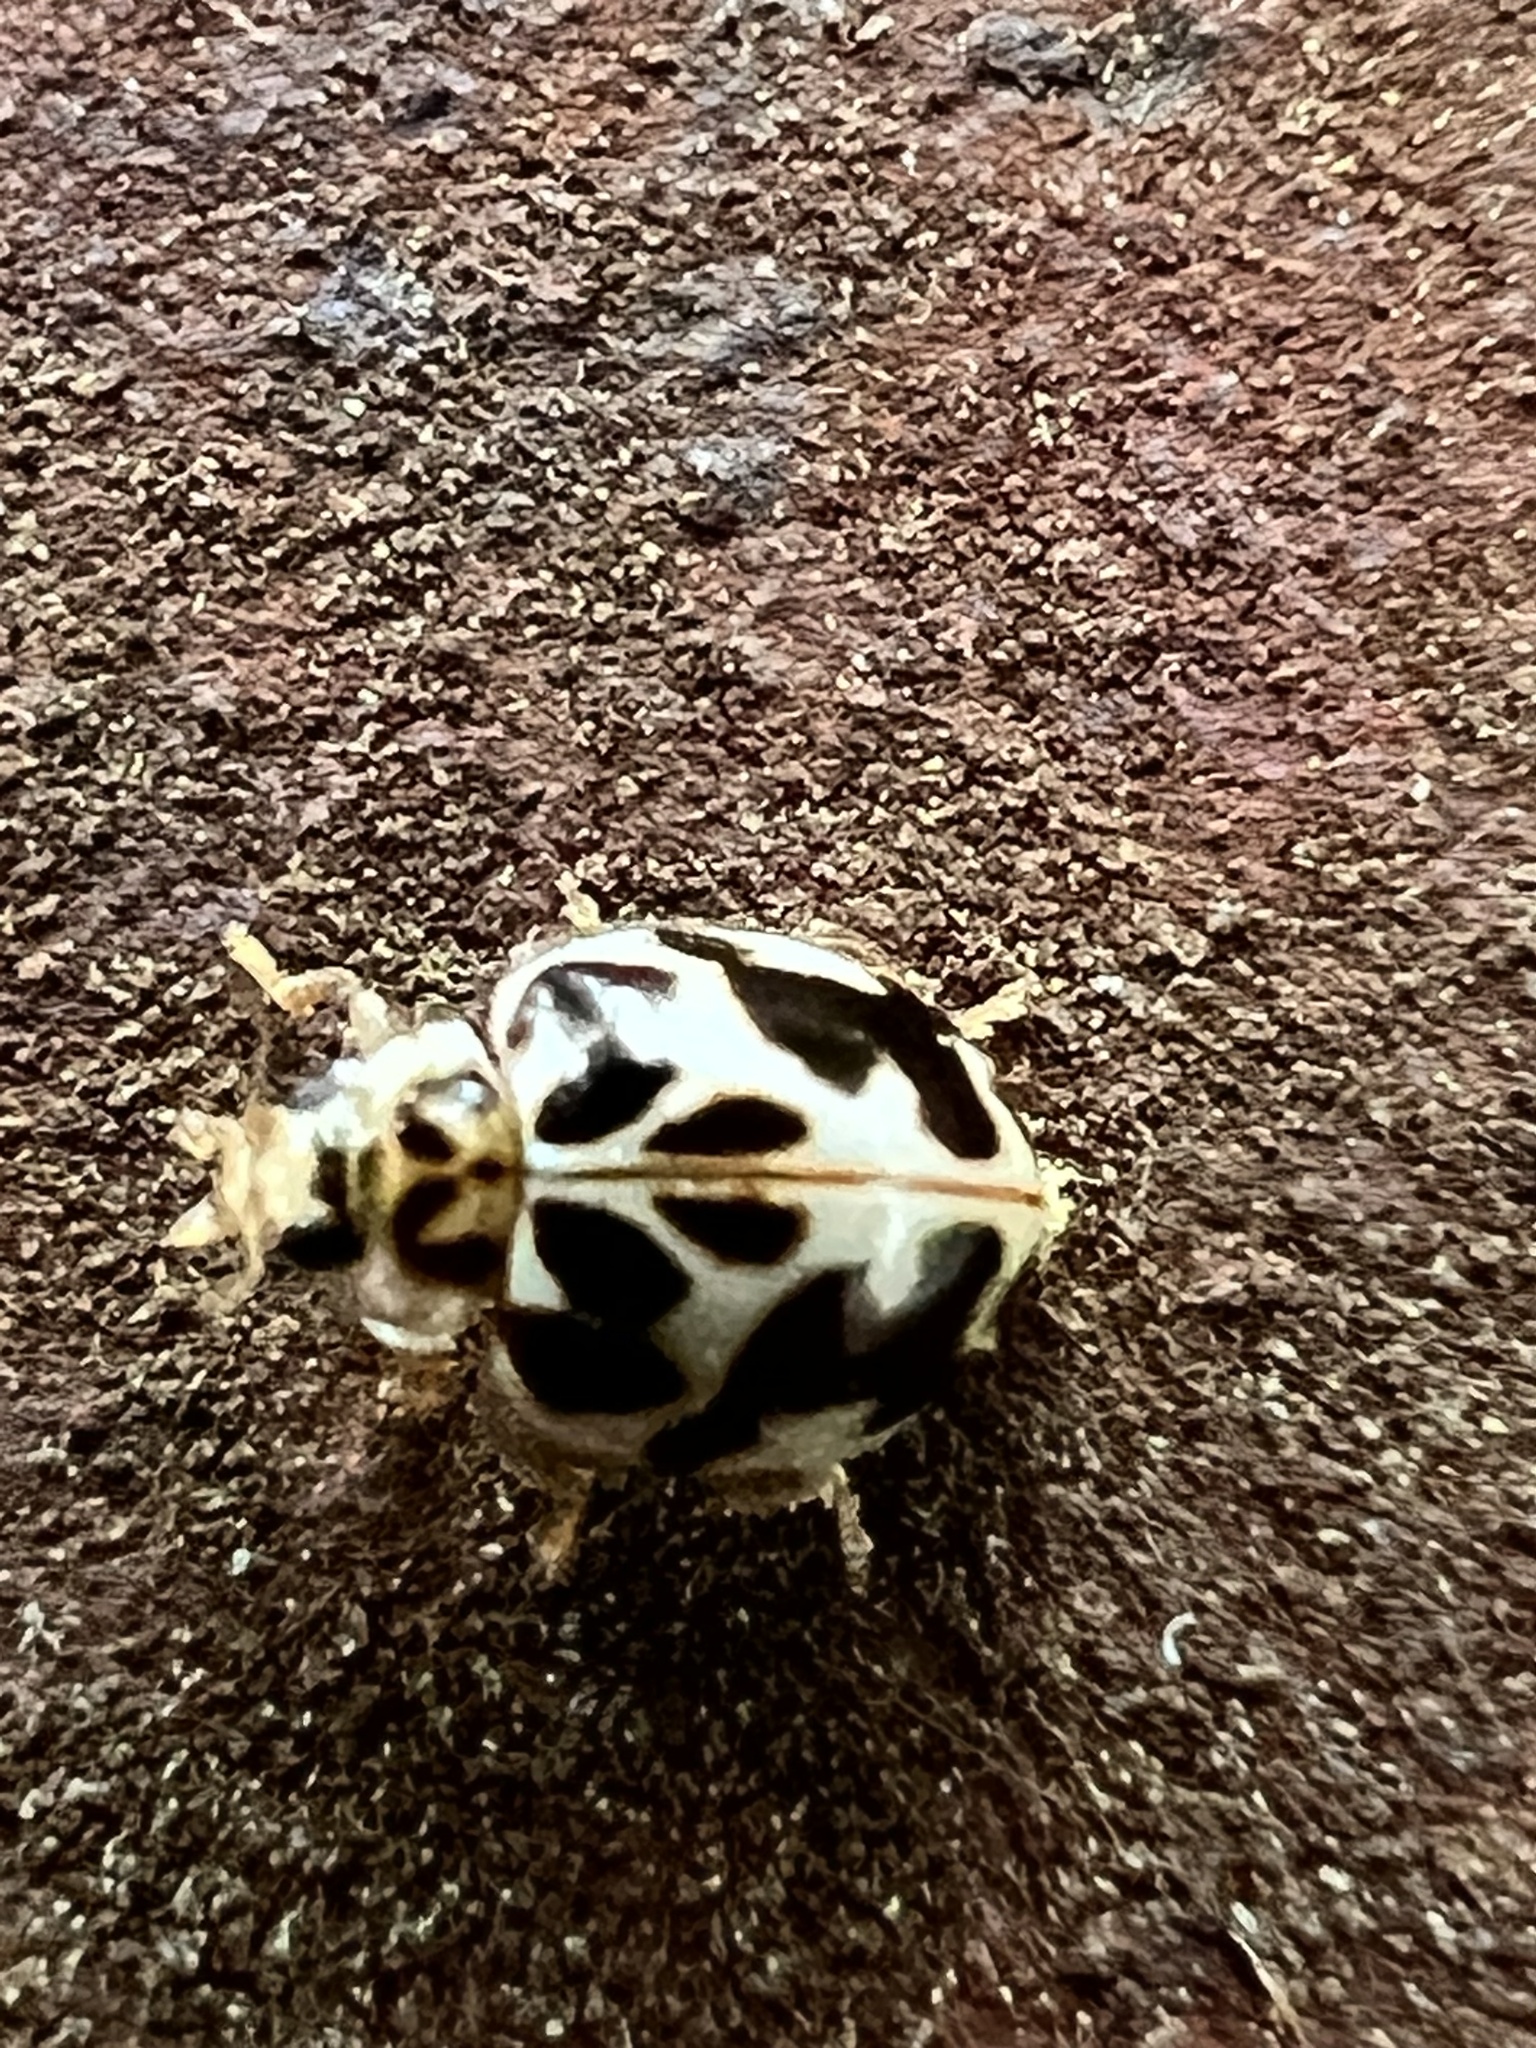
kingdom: Animalia
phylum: Arthropoda
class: Insecta
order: Coleoptera
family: Coccinellidae
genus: Psyllobora
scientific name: Psyllobora vigintimaculata
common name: Ladybird beetle
